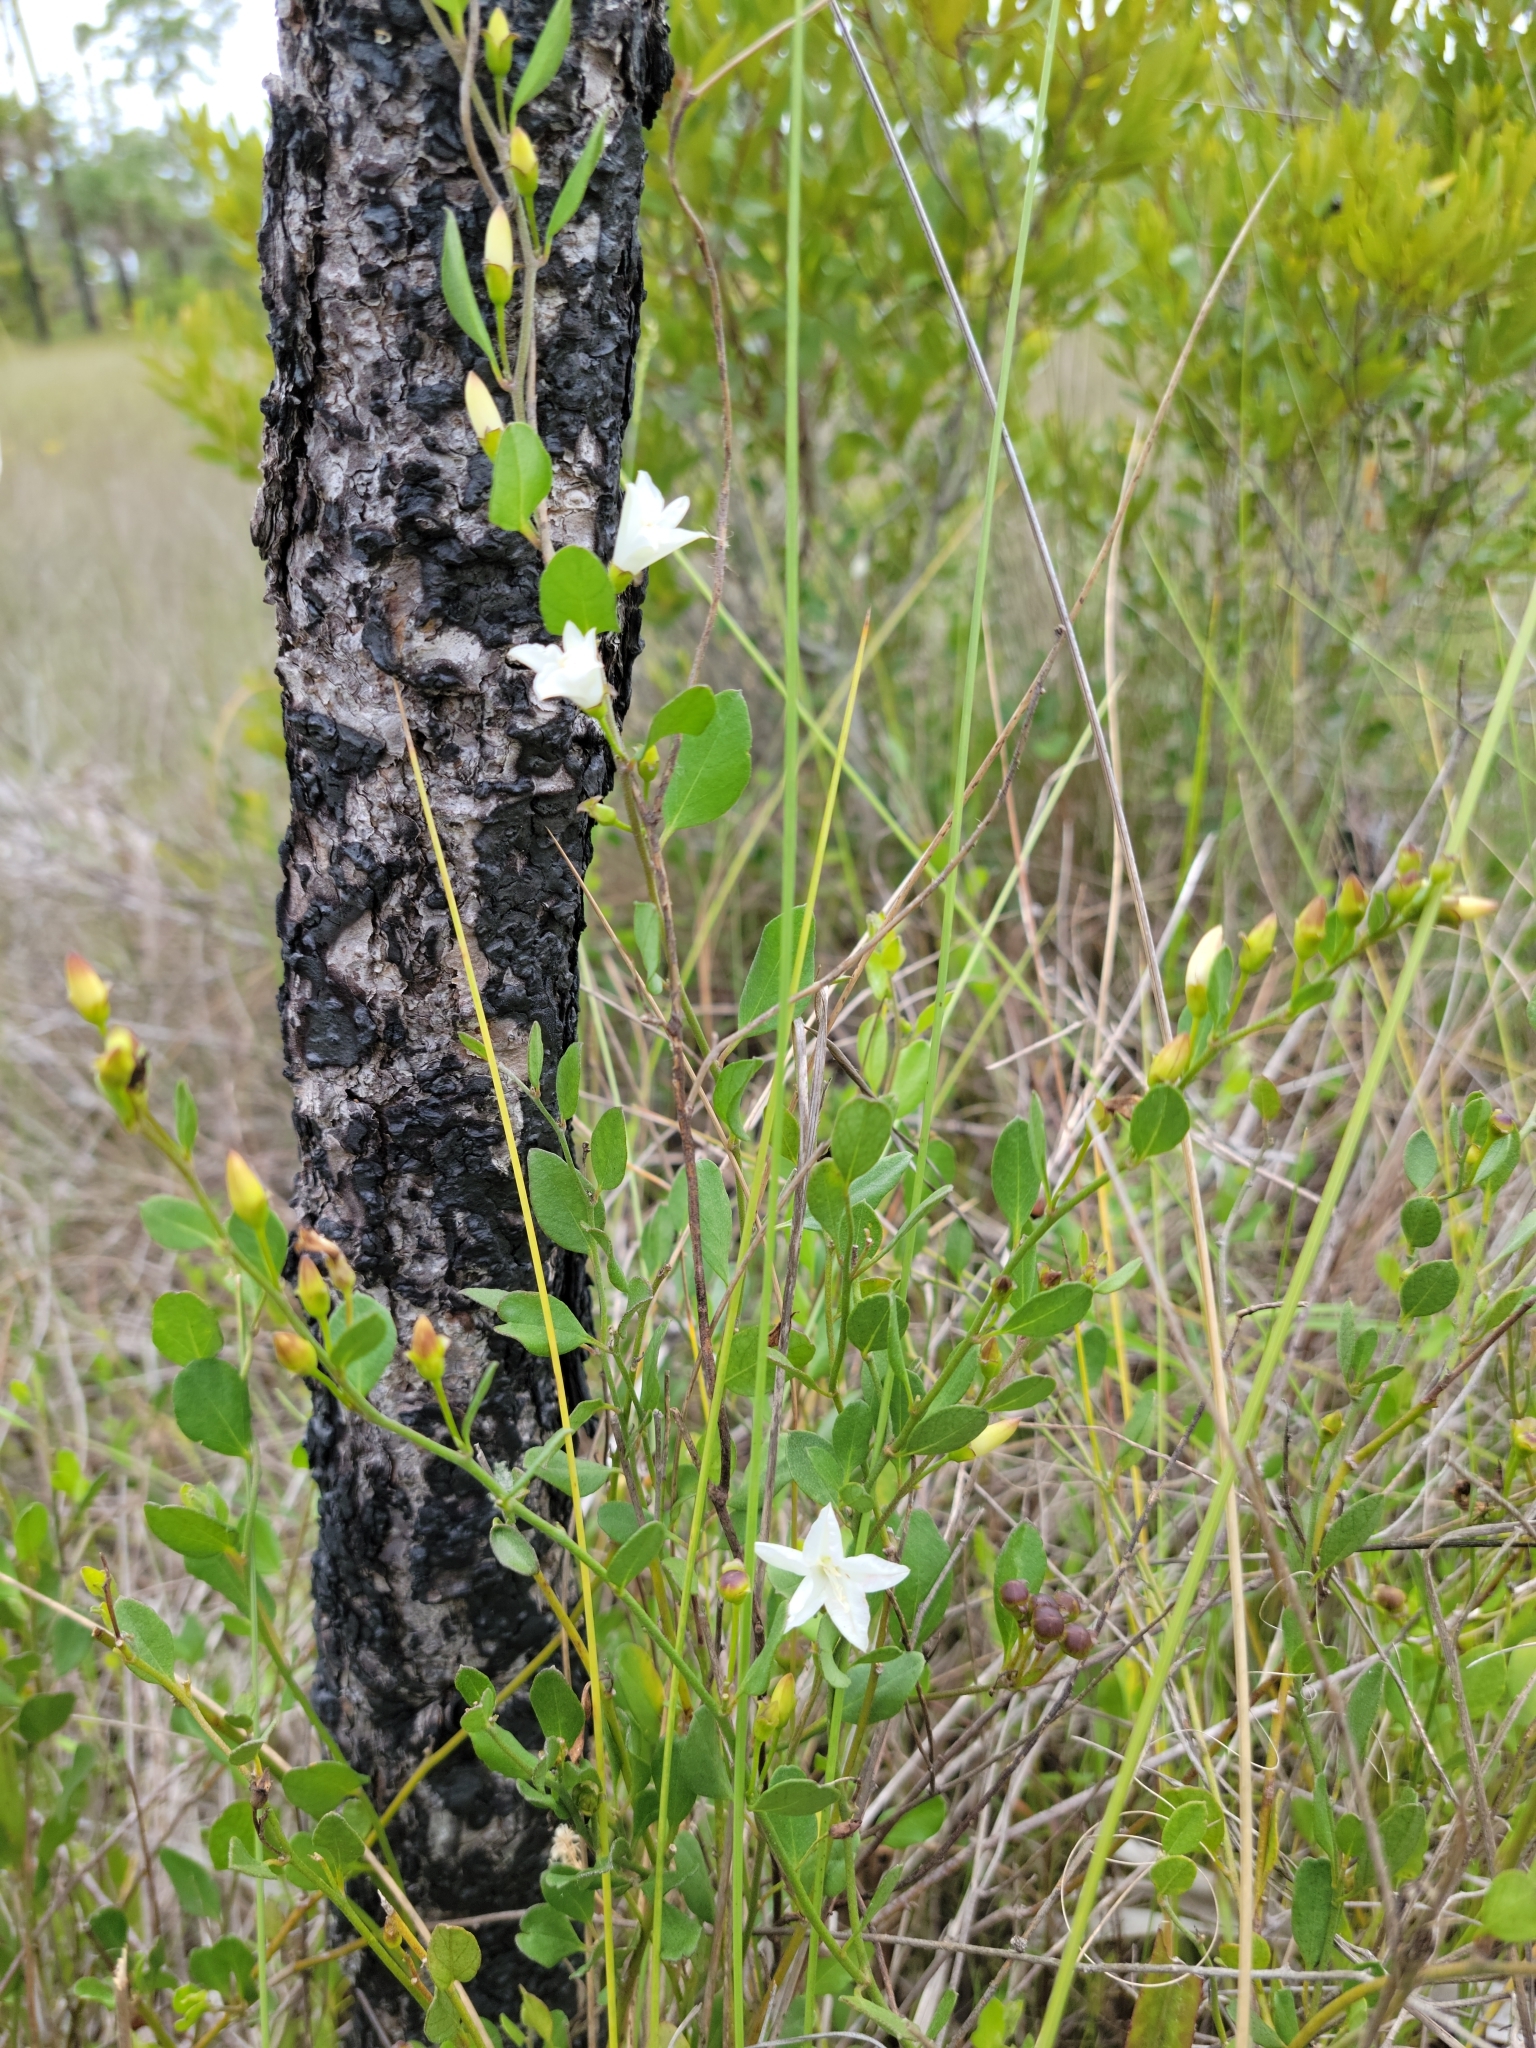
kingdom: Plantae
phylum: Tracheophyta
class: Magnoliopsida
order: Solanales
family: Convolvulaceae
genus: Jacquemontia
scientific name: Jacquemontia curtissii
